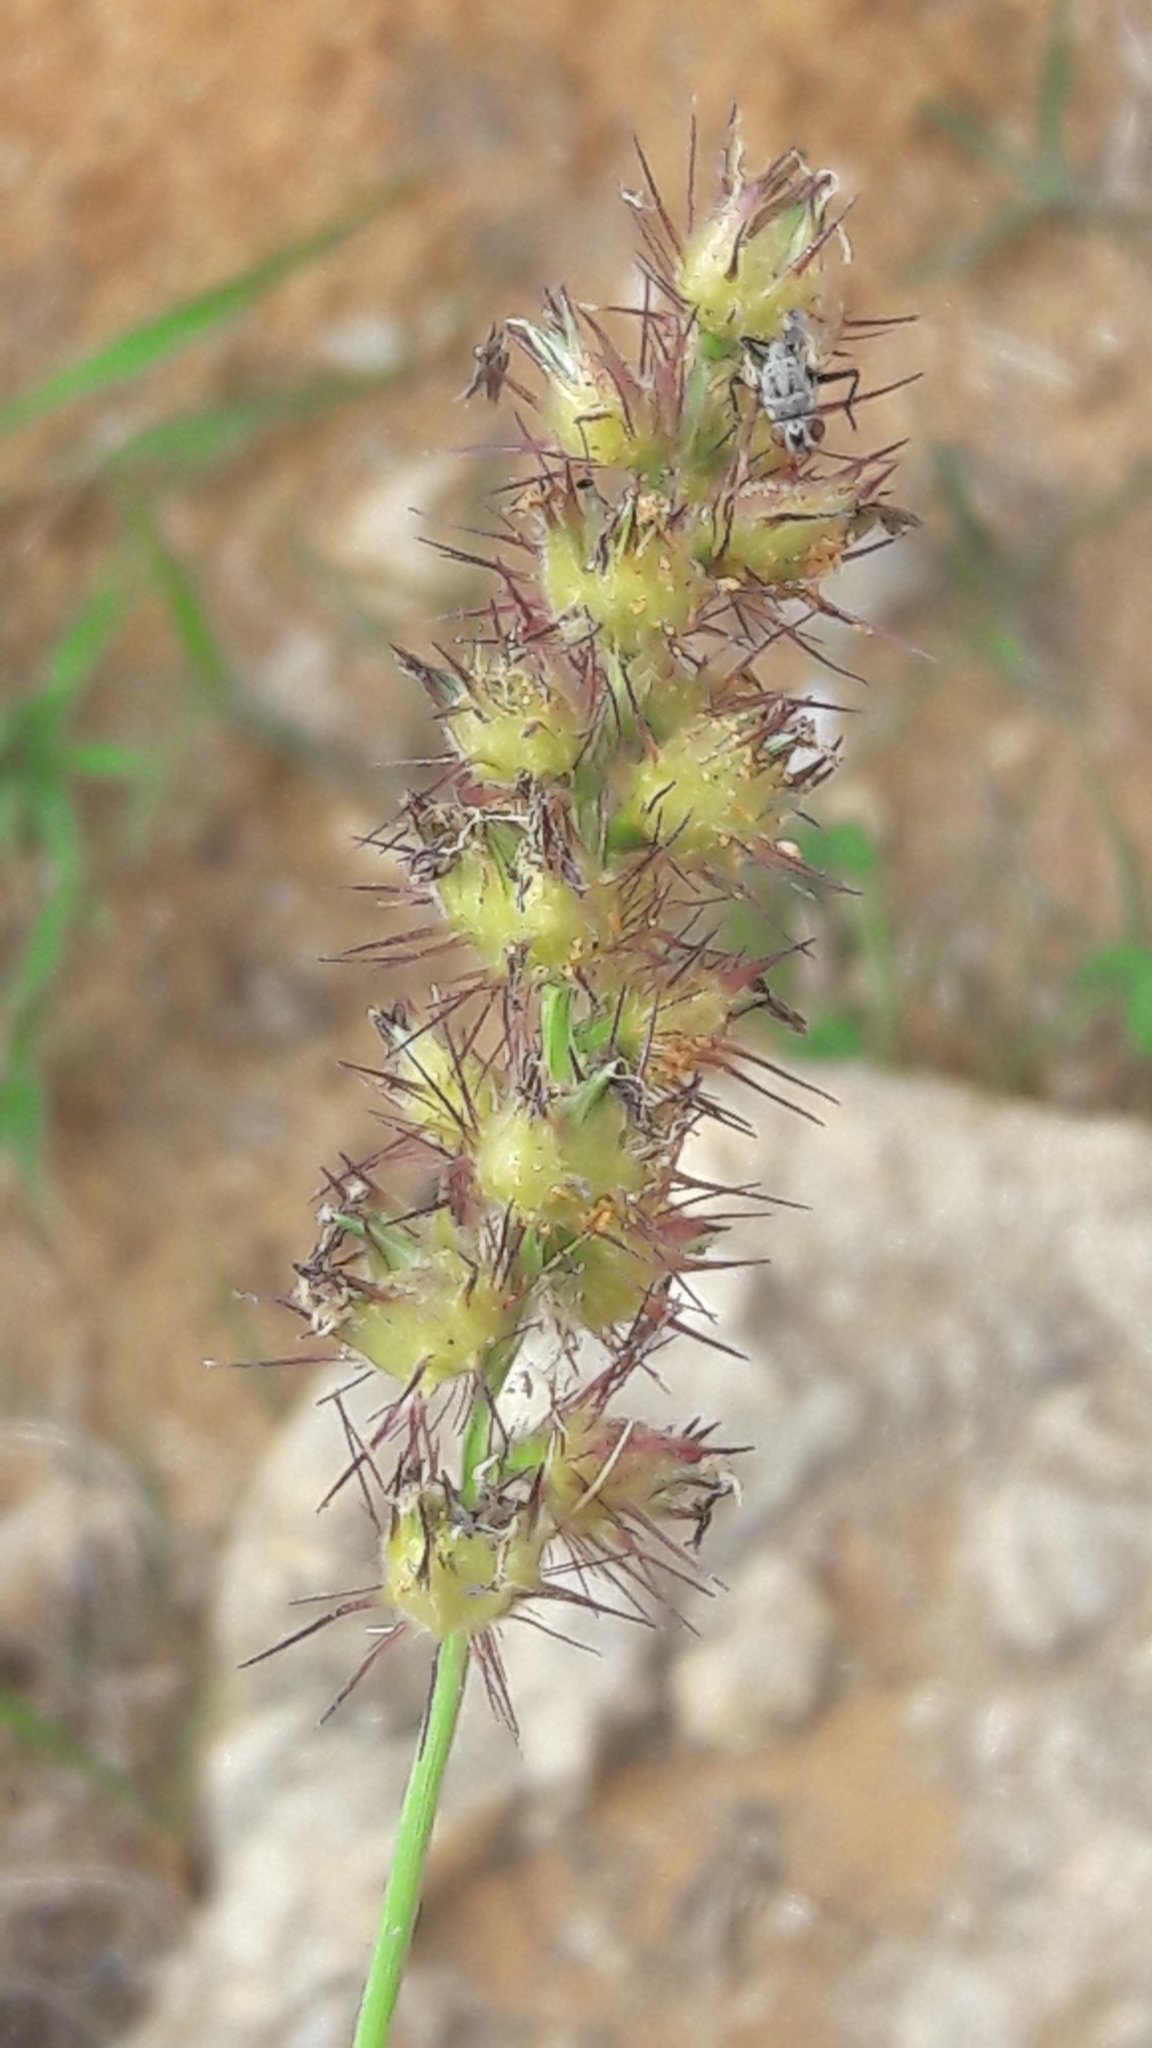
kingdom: Plantae
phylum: Tracheophyta
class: Liliopsida
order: Poales
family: Poaceae
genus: Cenchrus
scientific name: Cenchrus echinatus
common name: Southern sandbur
